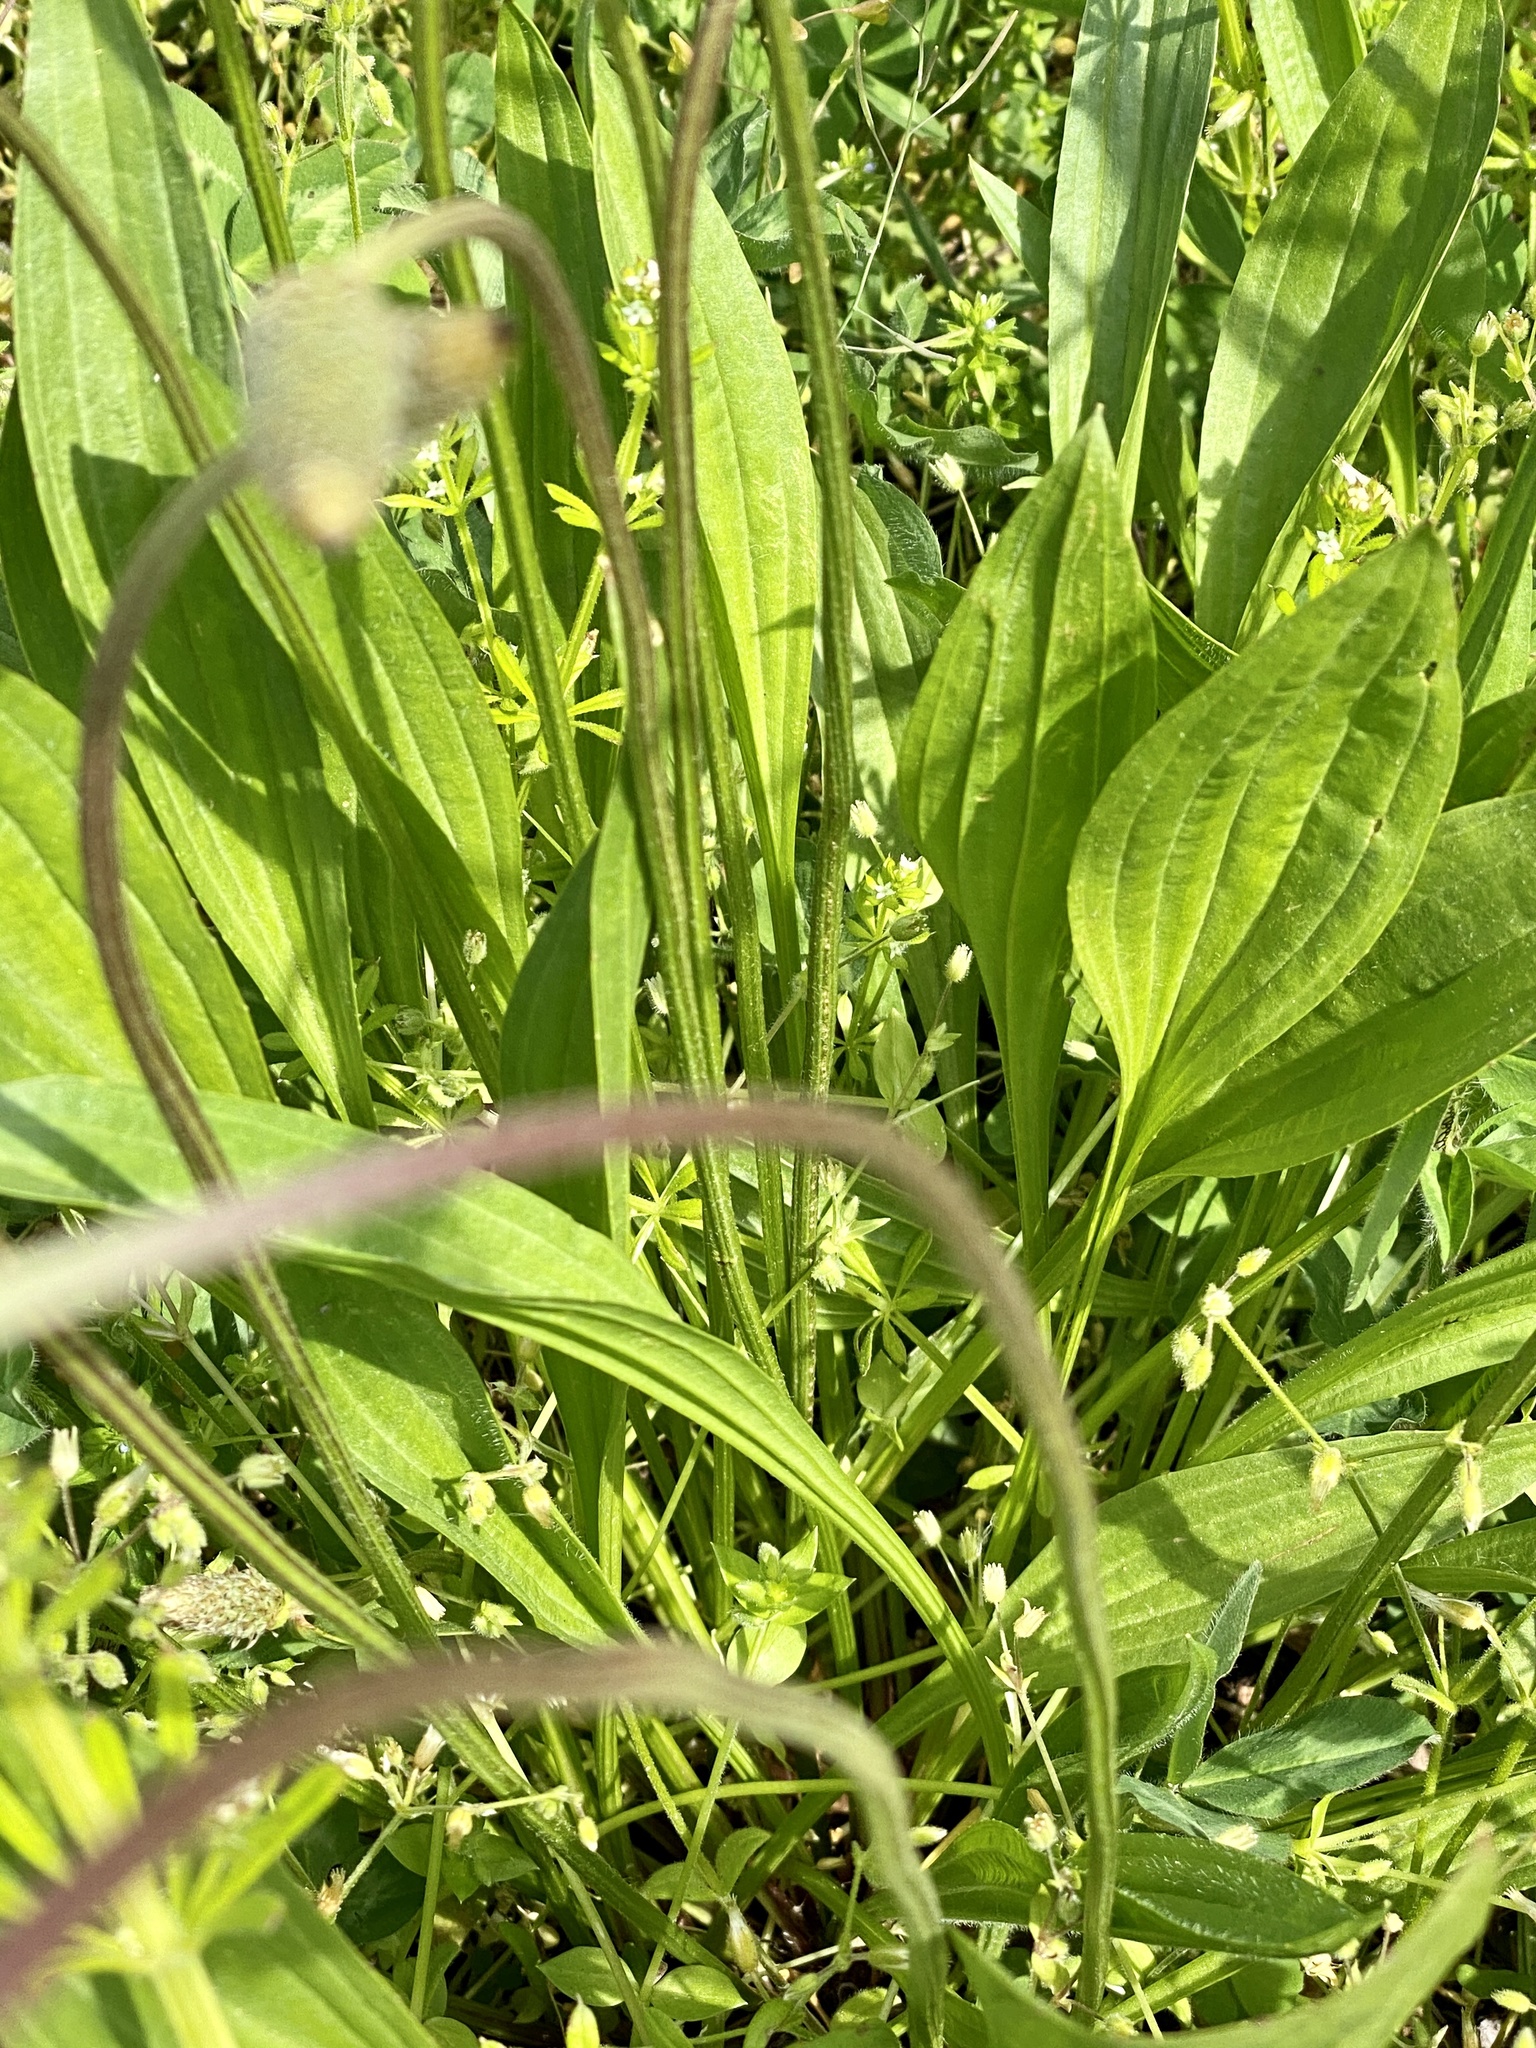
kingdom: Plantae
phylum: Tracheophyta
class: Magnoliopsida
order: Lamiales
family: Plantaginaceae
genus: Plantago
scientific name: Plantago lanceolata
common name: Ribwort plantain
